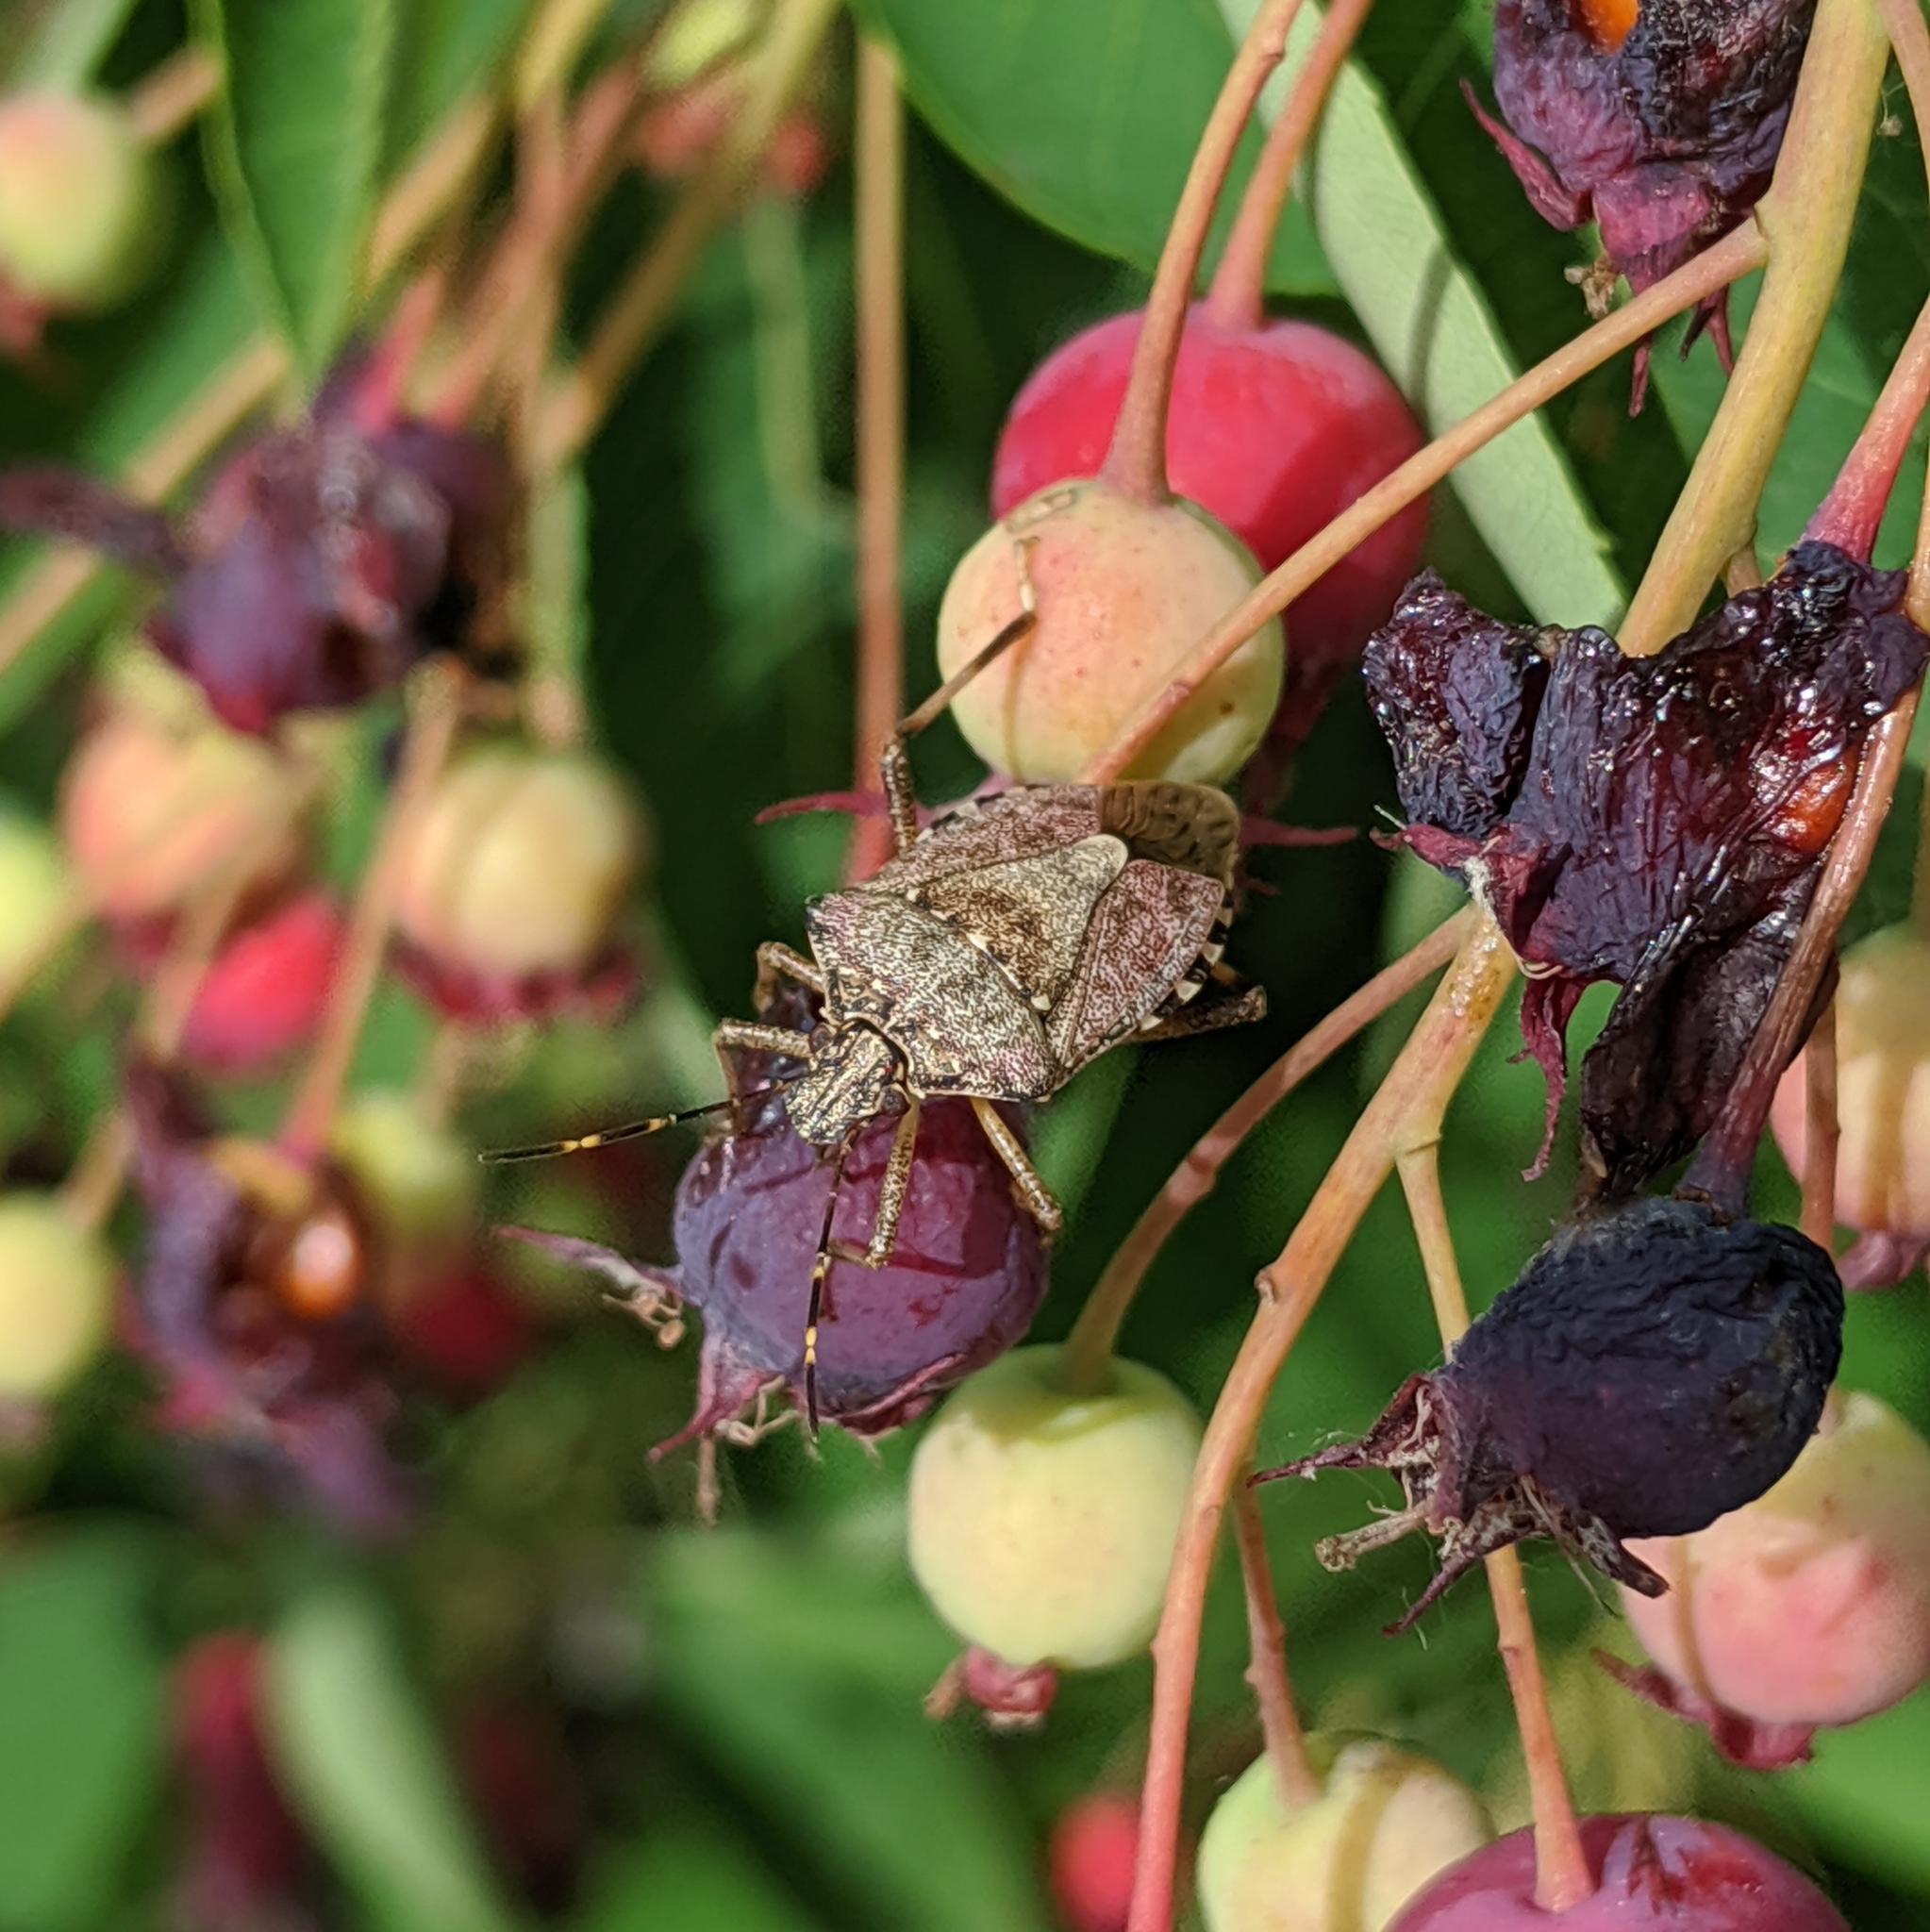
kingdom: Animalia
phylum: Arthropoda
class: Insecta
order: Hemiptera
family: Pentatomidae
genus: Halyomorpha
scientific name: Halyomorpha halys
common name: Brown marmorated stink bug
